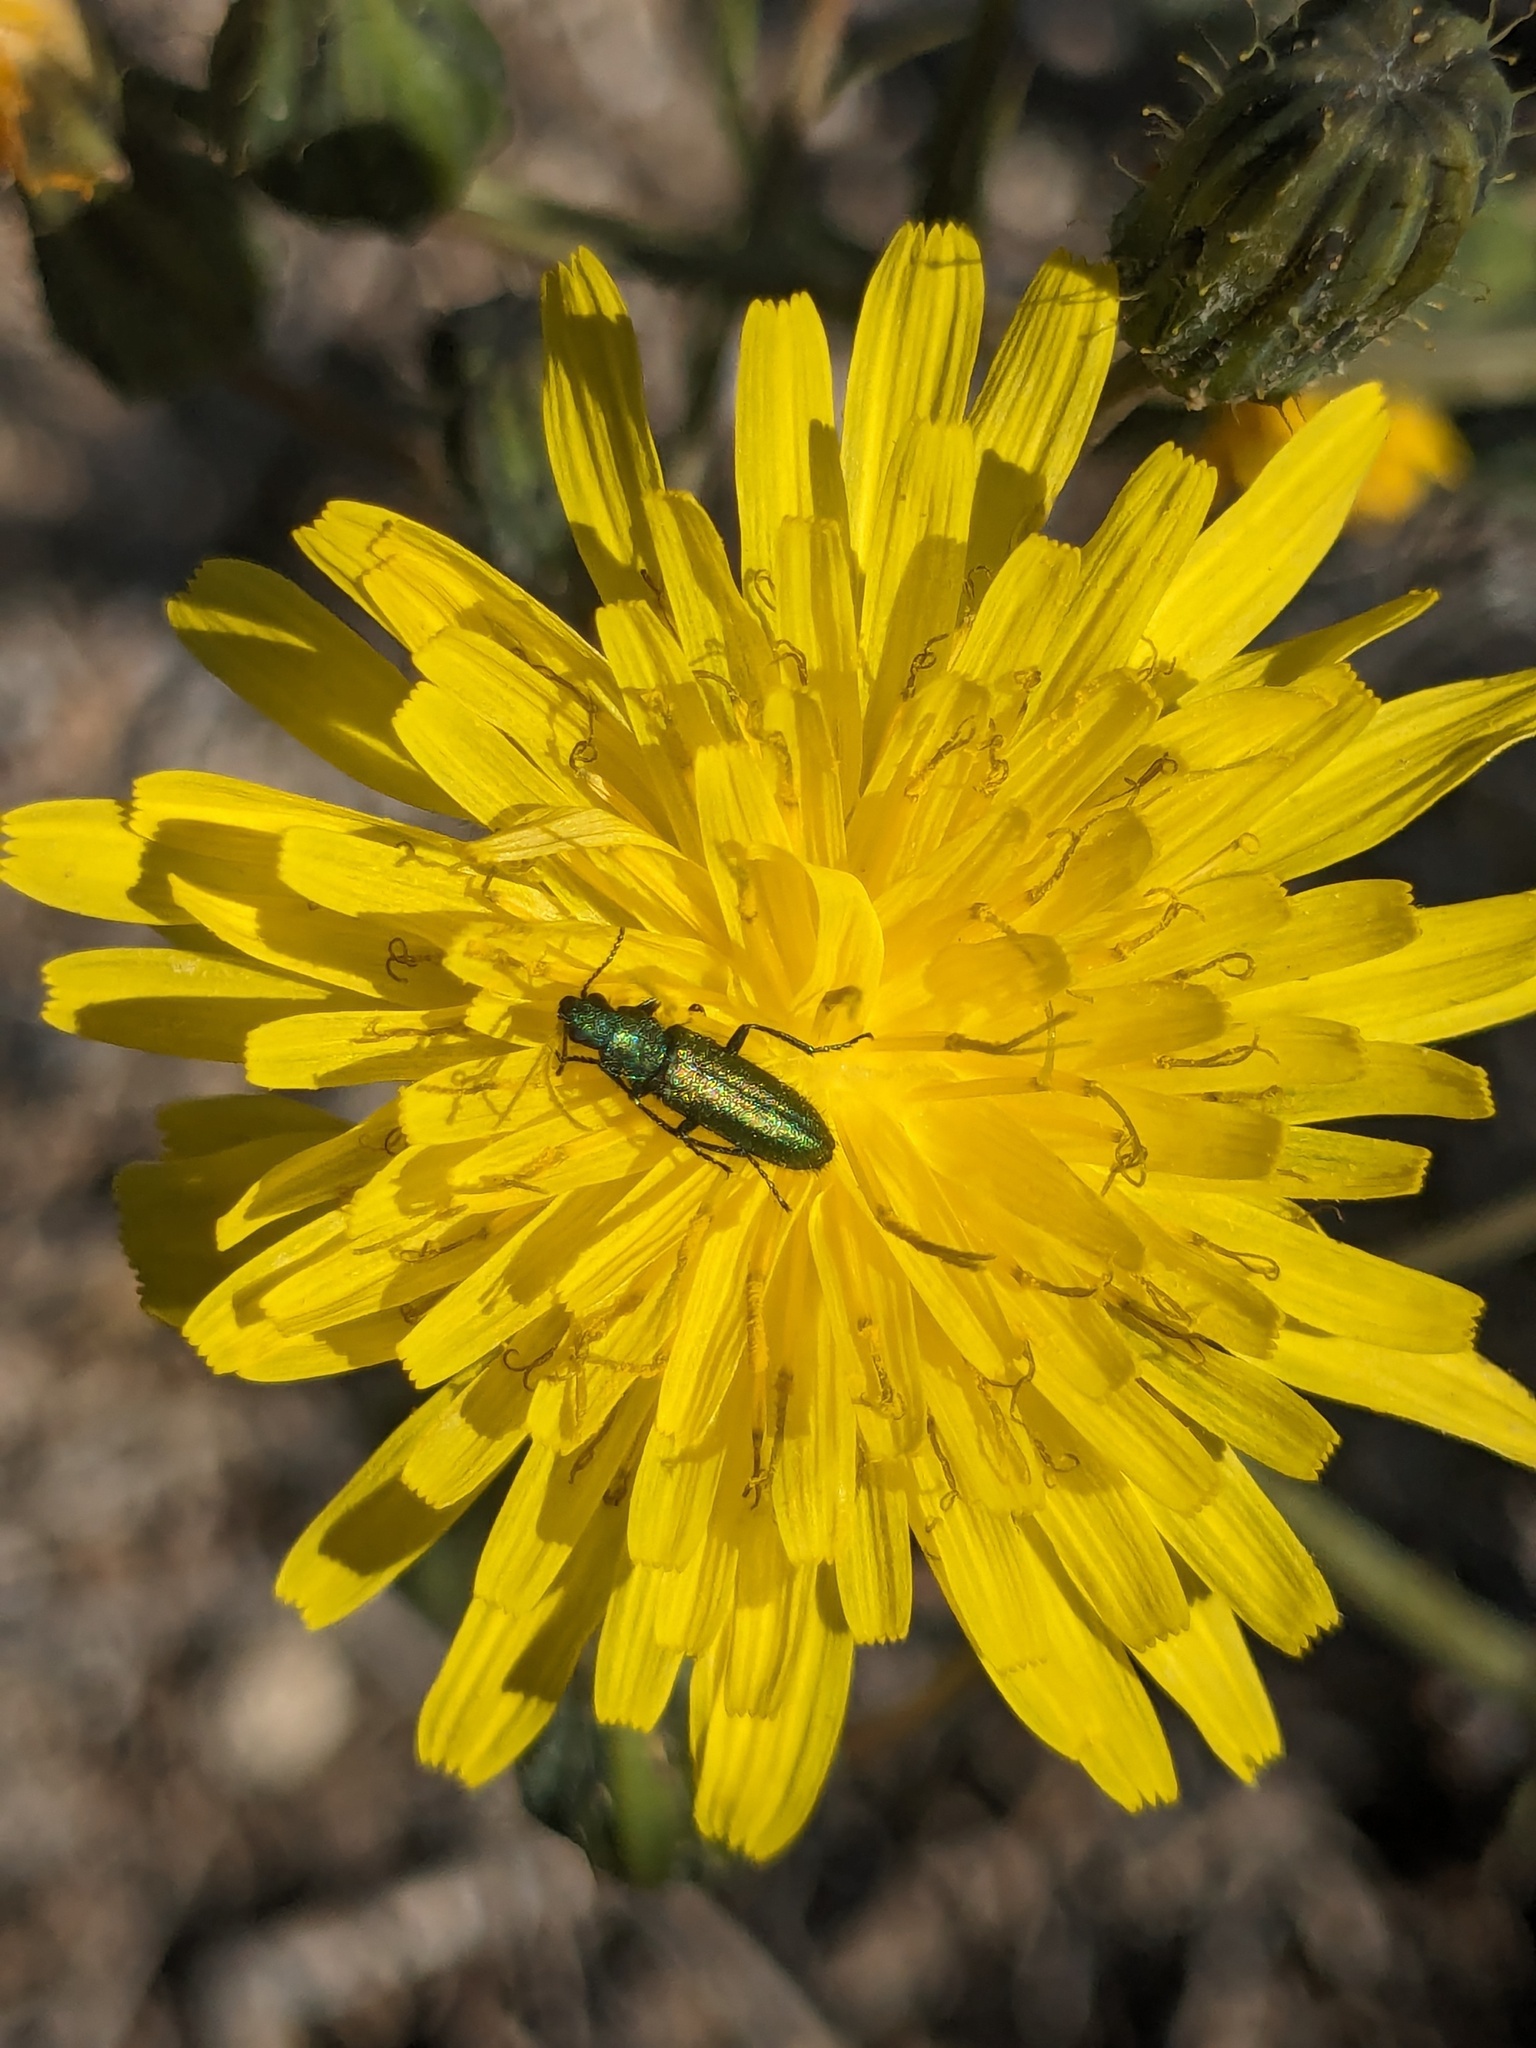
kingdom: Animalia
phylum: Arthropoda
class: Insecta
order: Coleoptera
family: Dasytidae
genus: Psilothrix
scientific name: Psilothrix viridicoerulea
